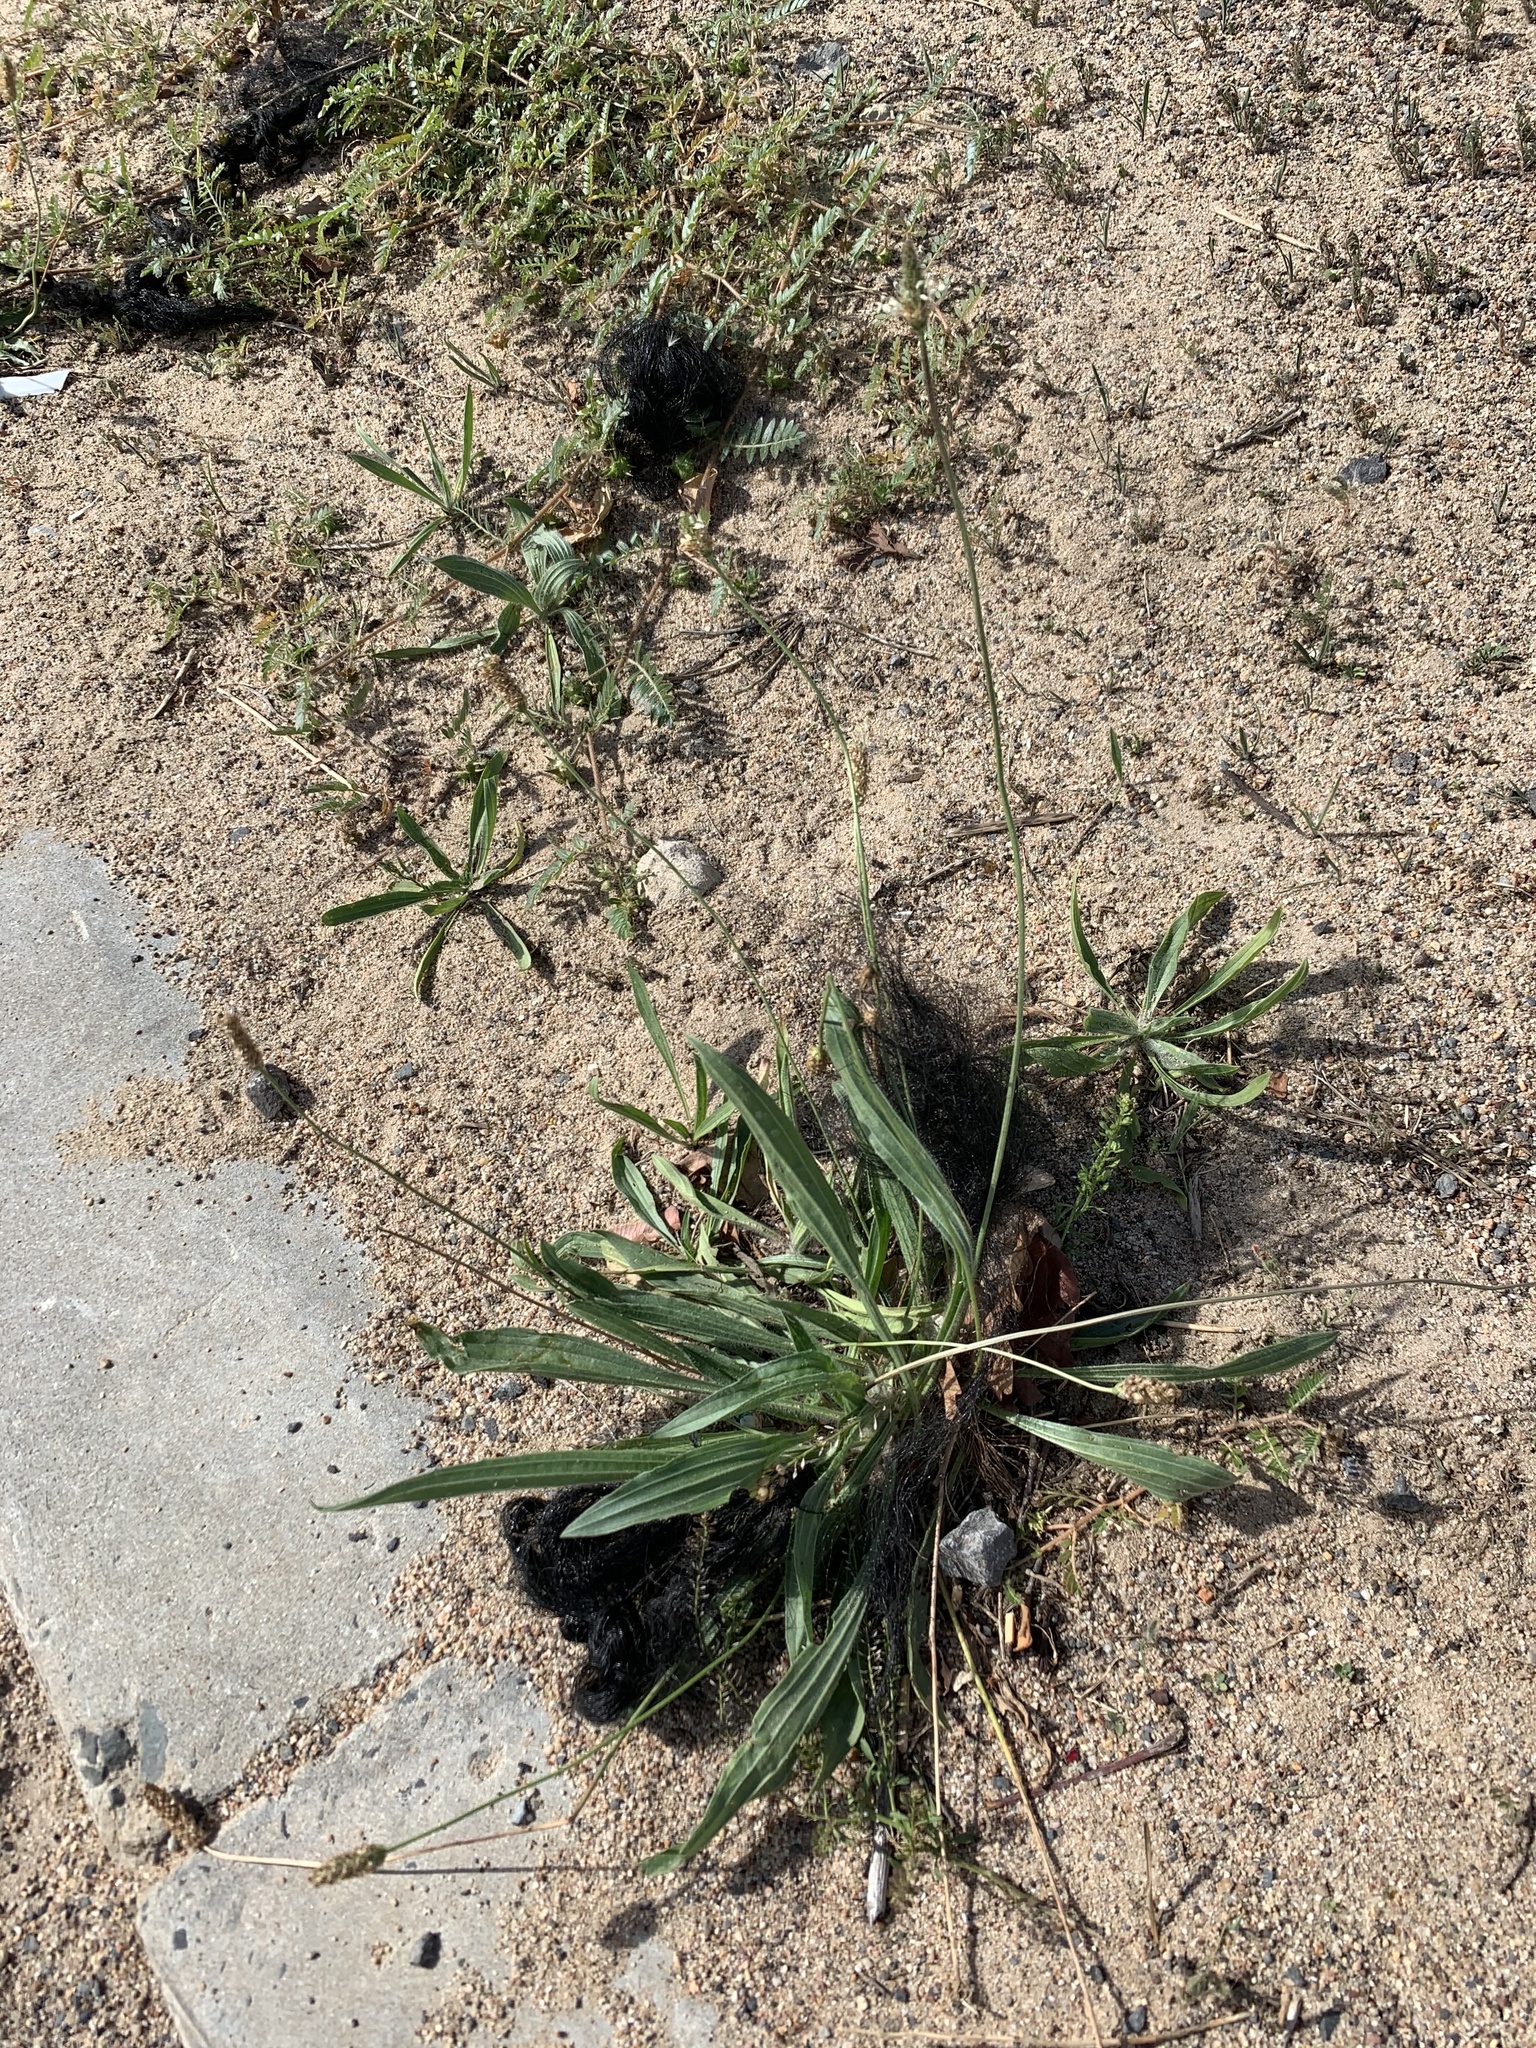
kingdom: Plantae
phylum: Tracheophyta
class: Magnoliopsida
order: Lamiales
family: Plantaginaceae
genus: Plantago
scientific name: Plantago lanceolata
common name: Ribwort plantain
